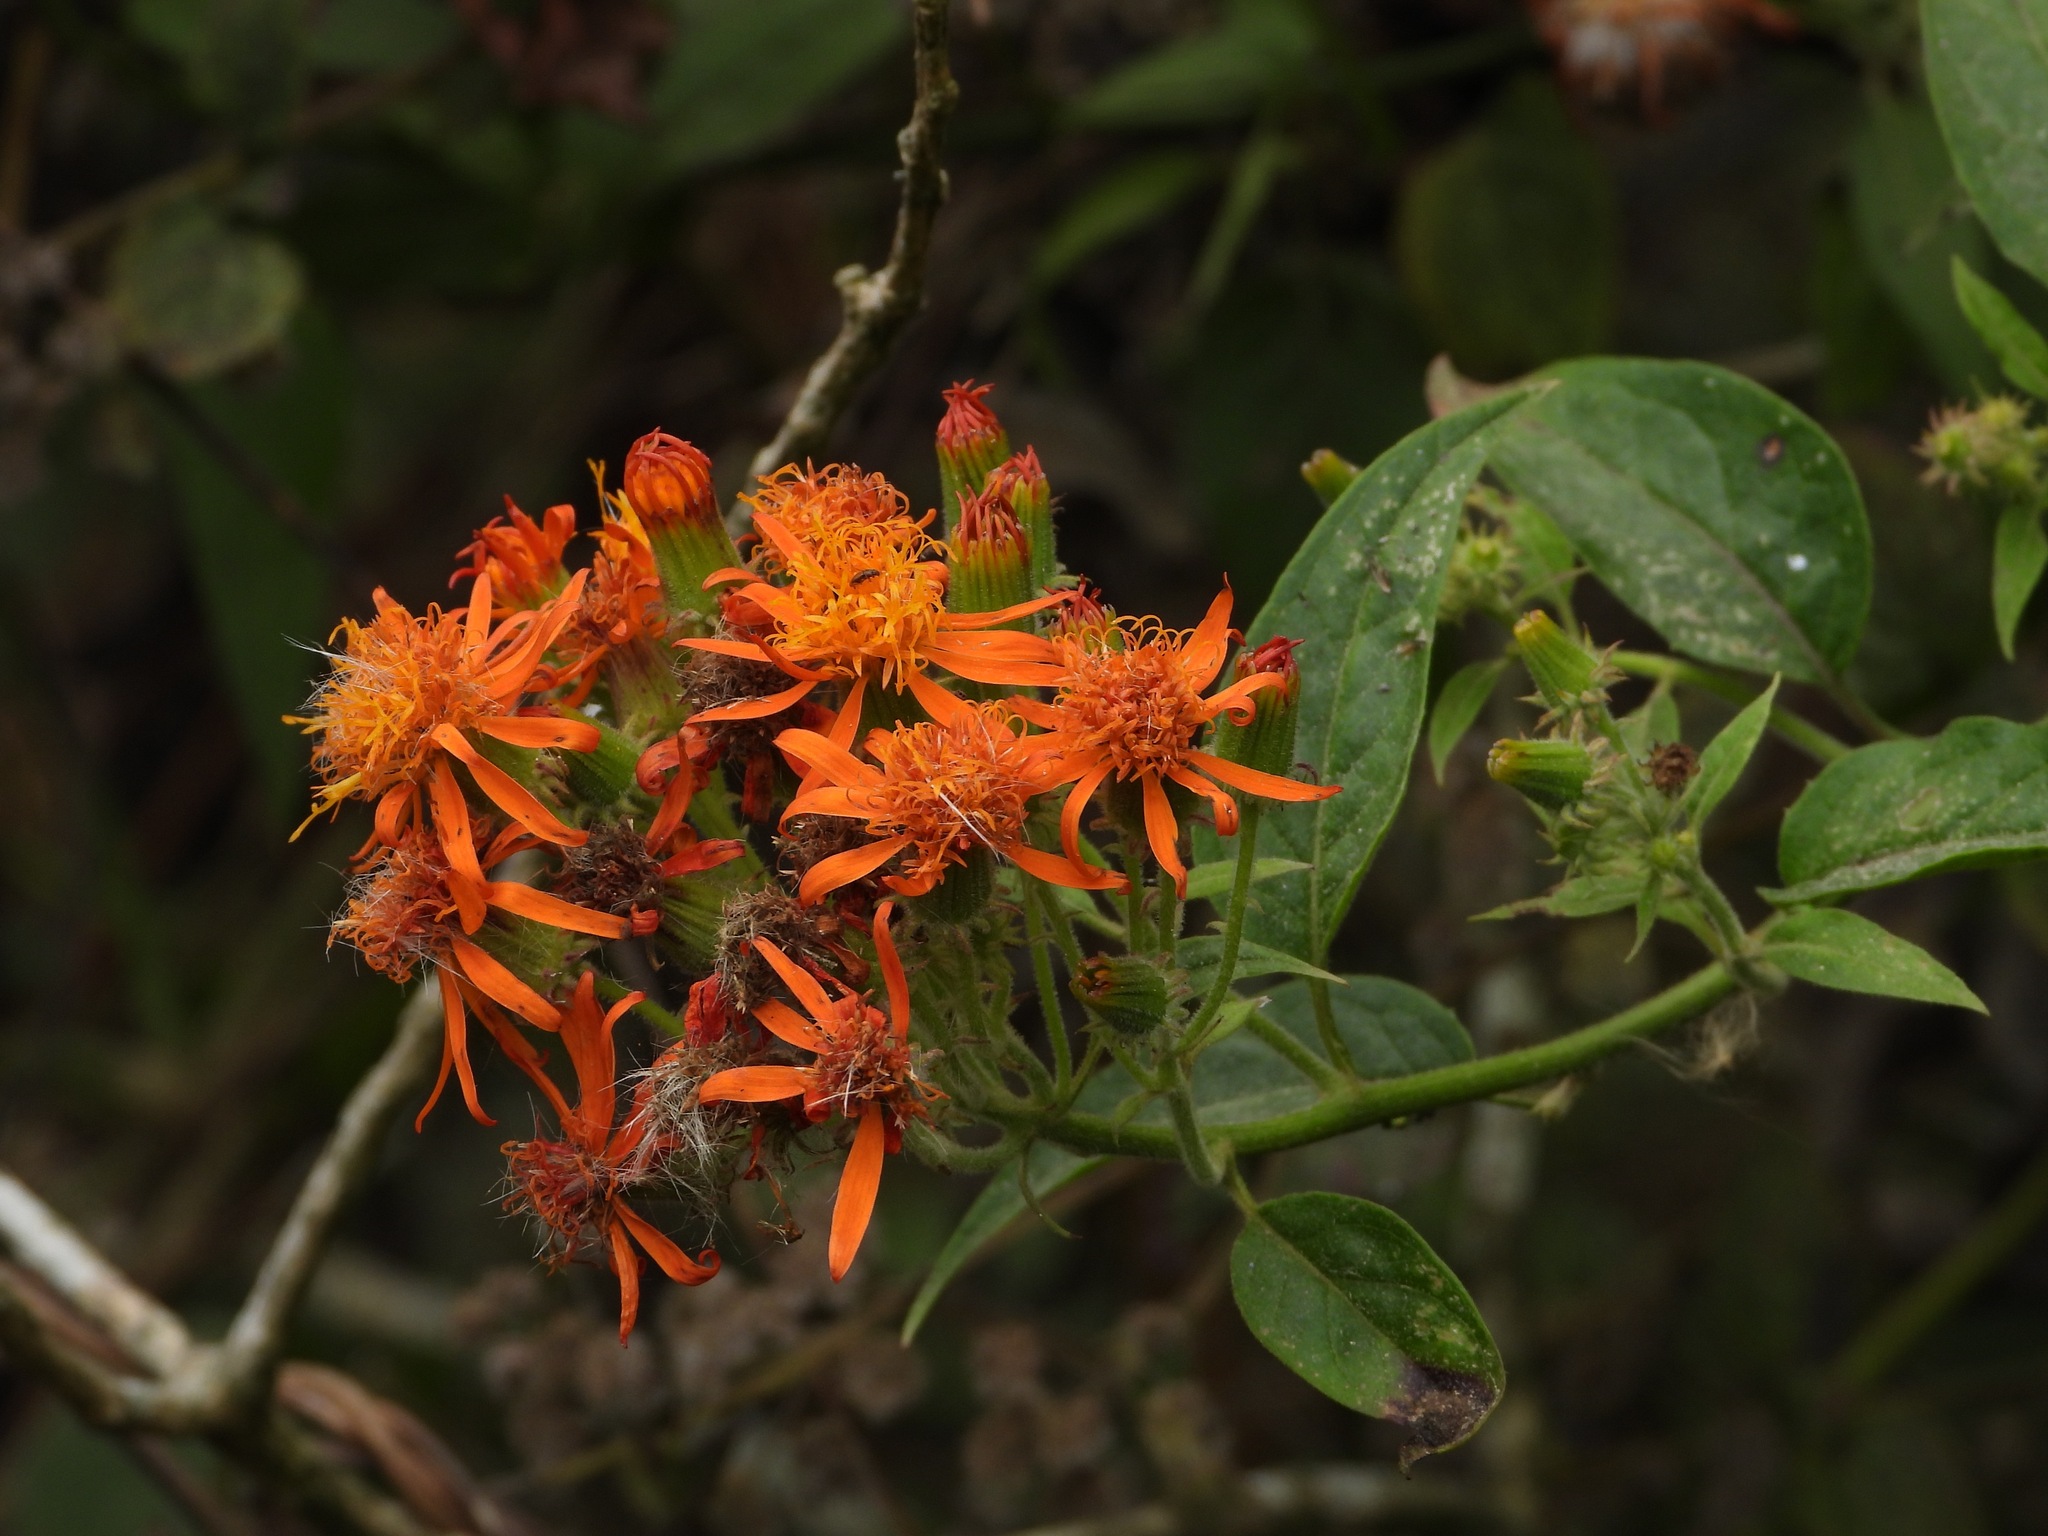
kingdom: Plantae
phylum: Tracheophyta
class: Magnoliopsida
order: Asterales
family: Asteraceae
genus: Pseudogynoxys
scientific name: Pseudogynoxys chenopodioides
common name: Mexican flamevine
